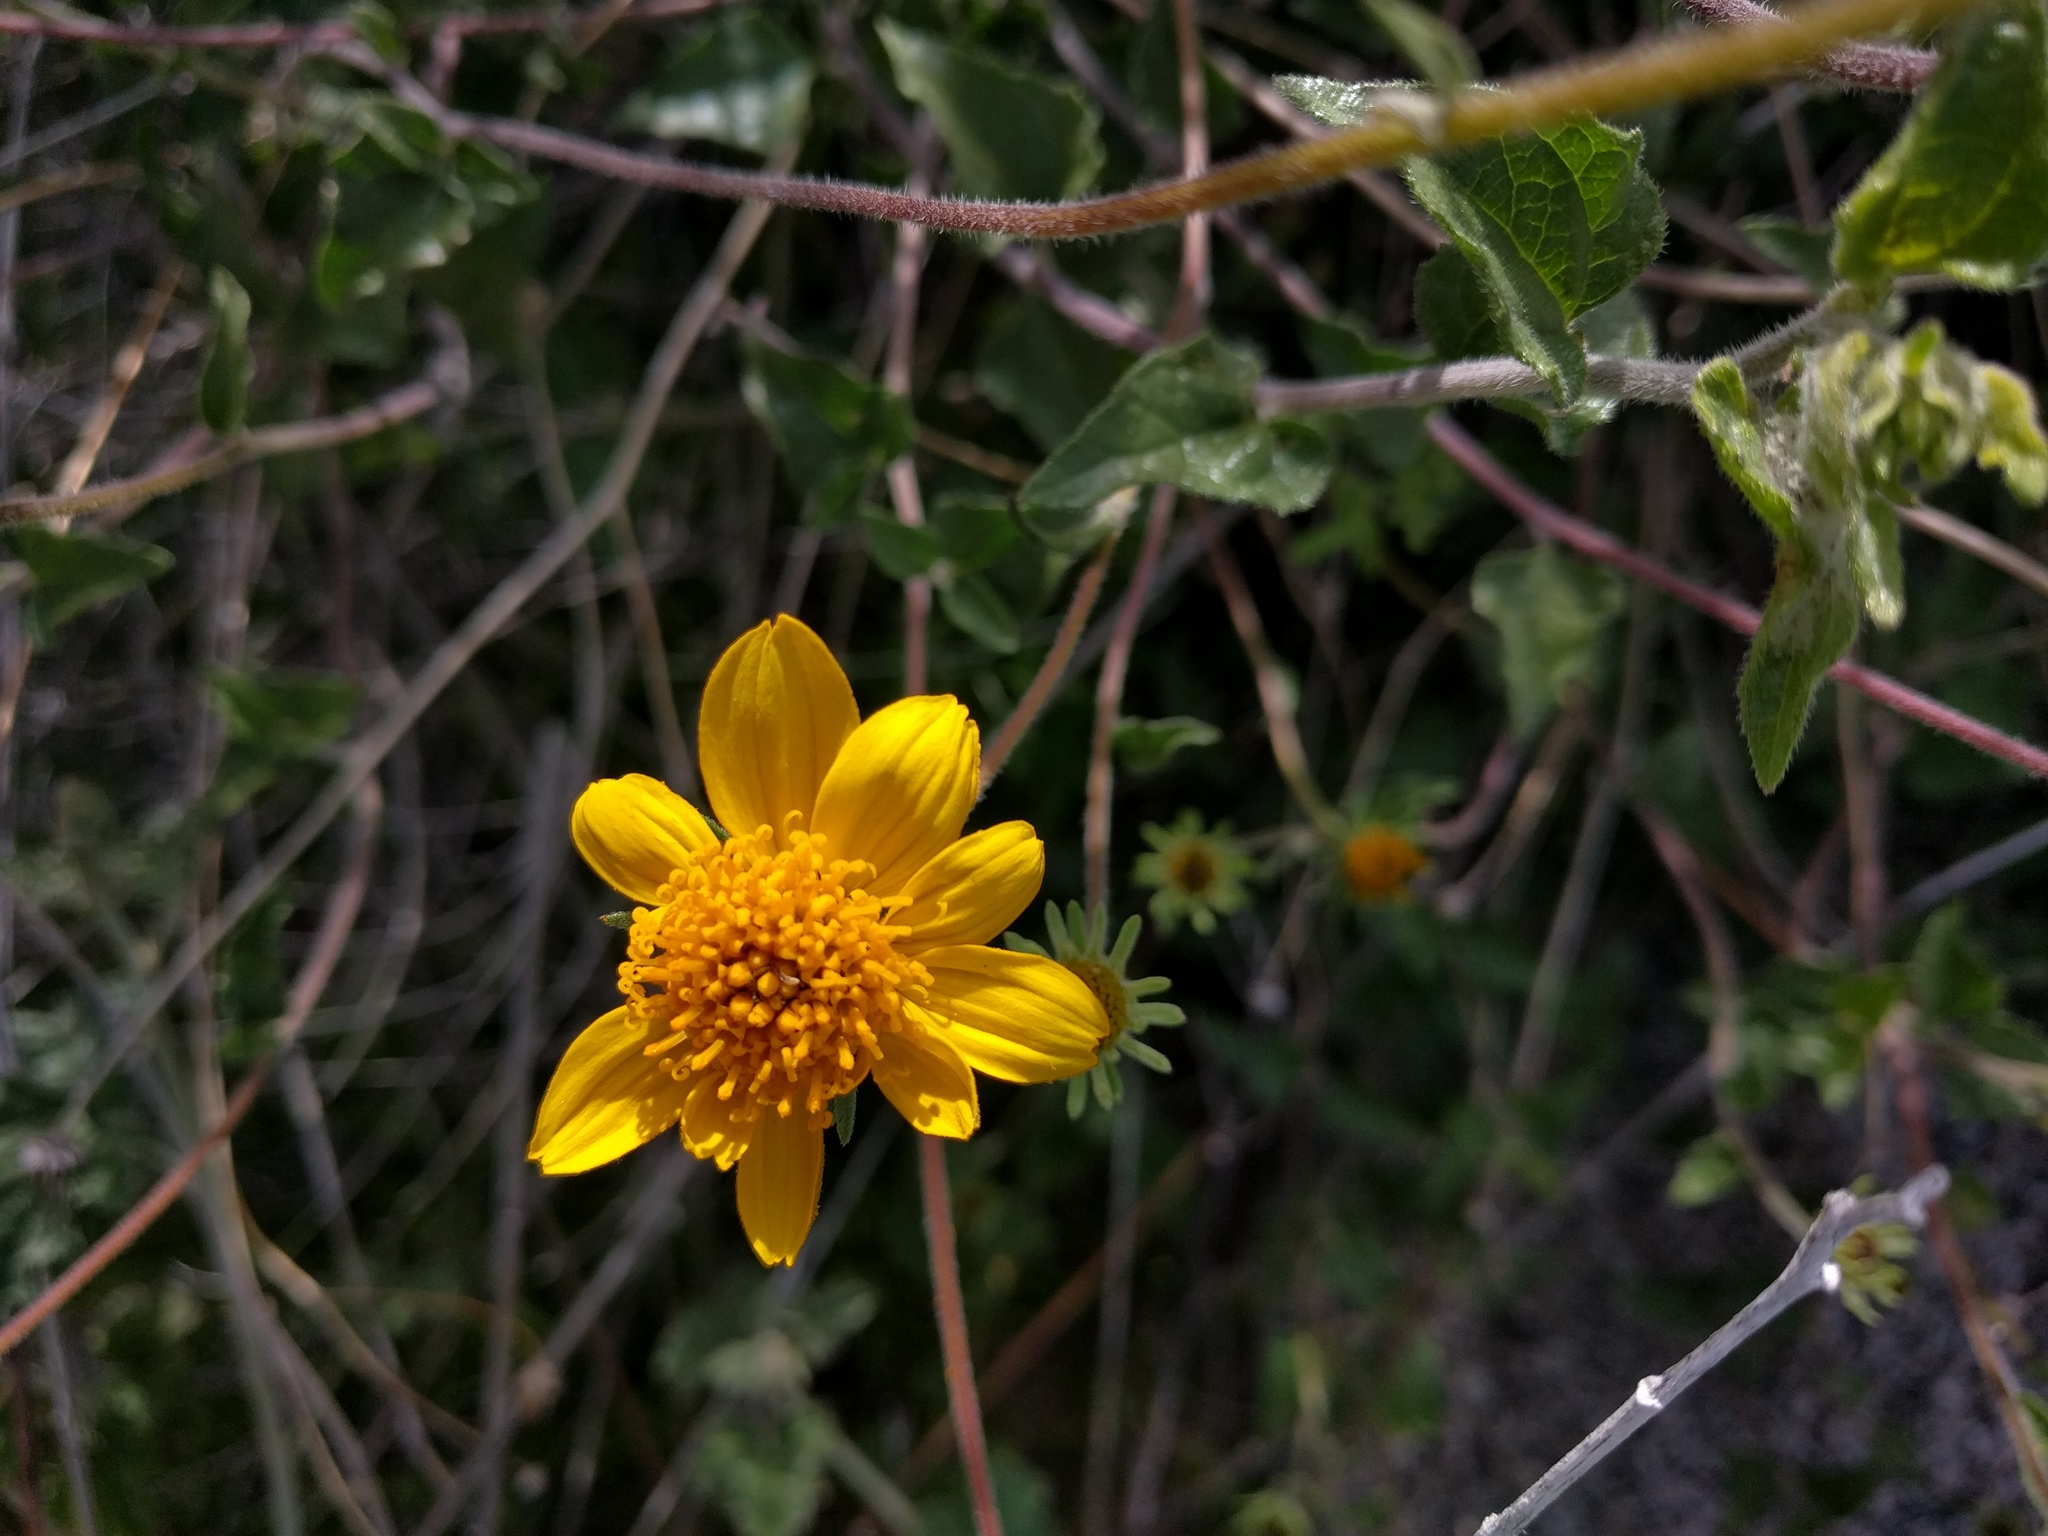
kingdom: Plantae
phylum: Tracheophyta
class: Magnoliopsida
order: Asterales
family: Asteraceae
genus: Bahiopsis
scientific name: Bahiopsis parishii
